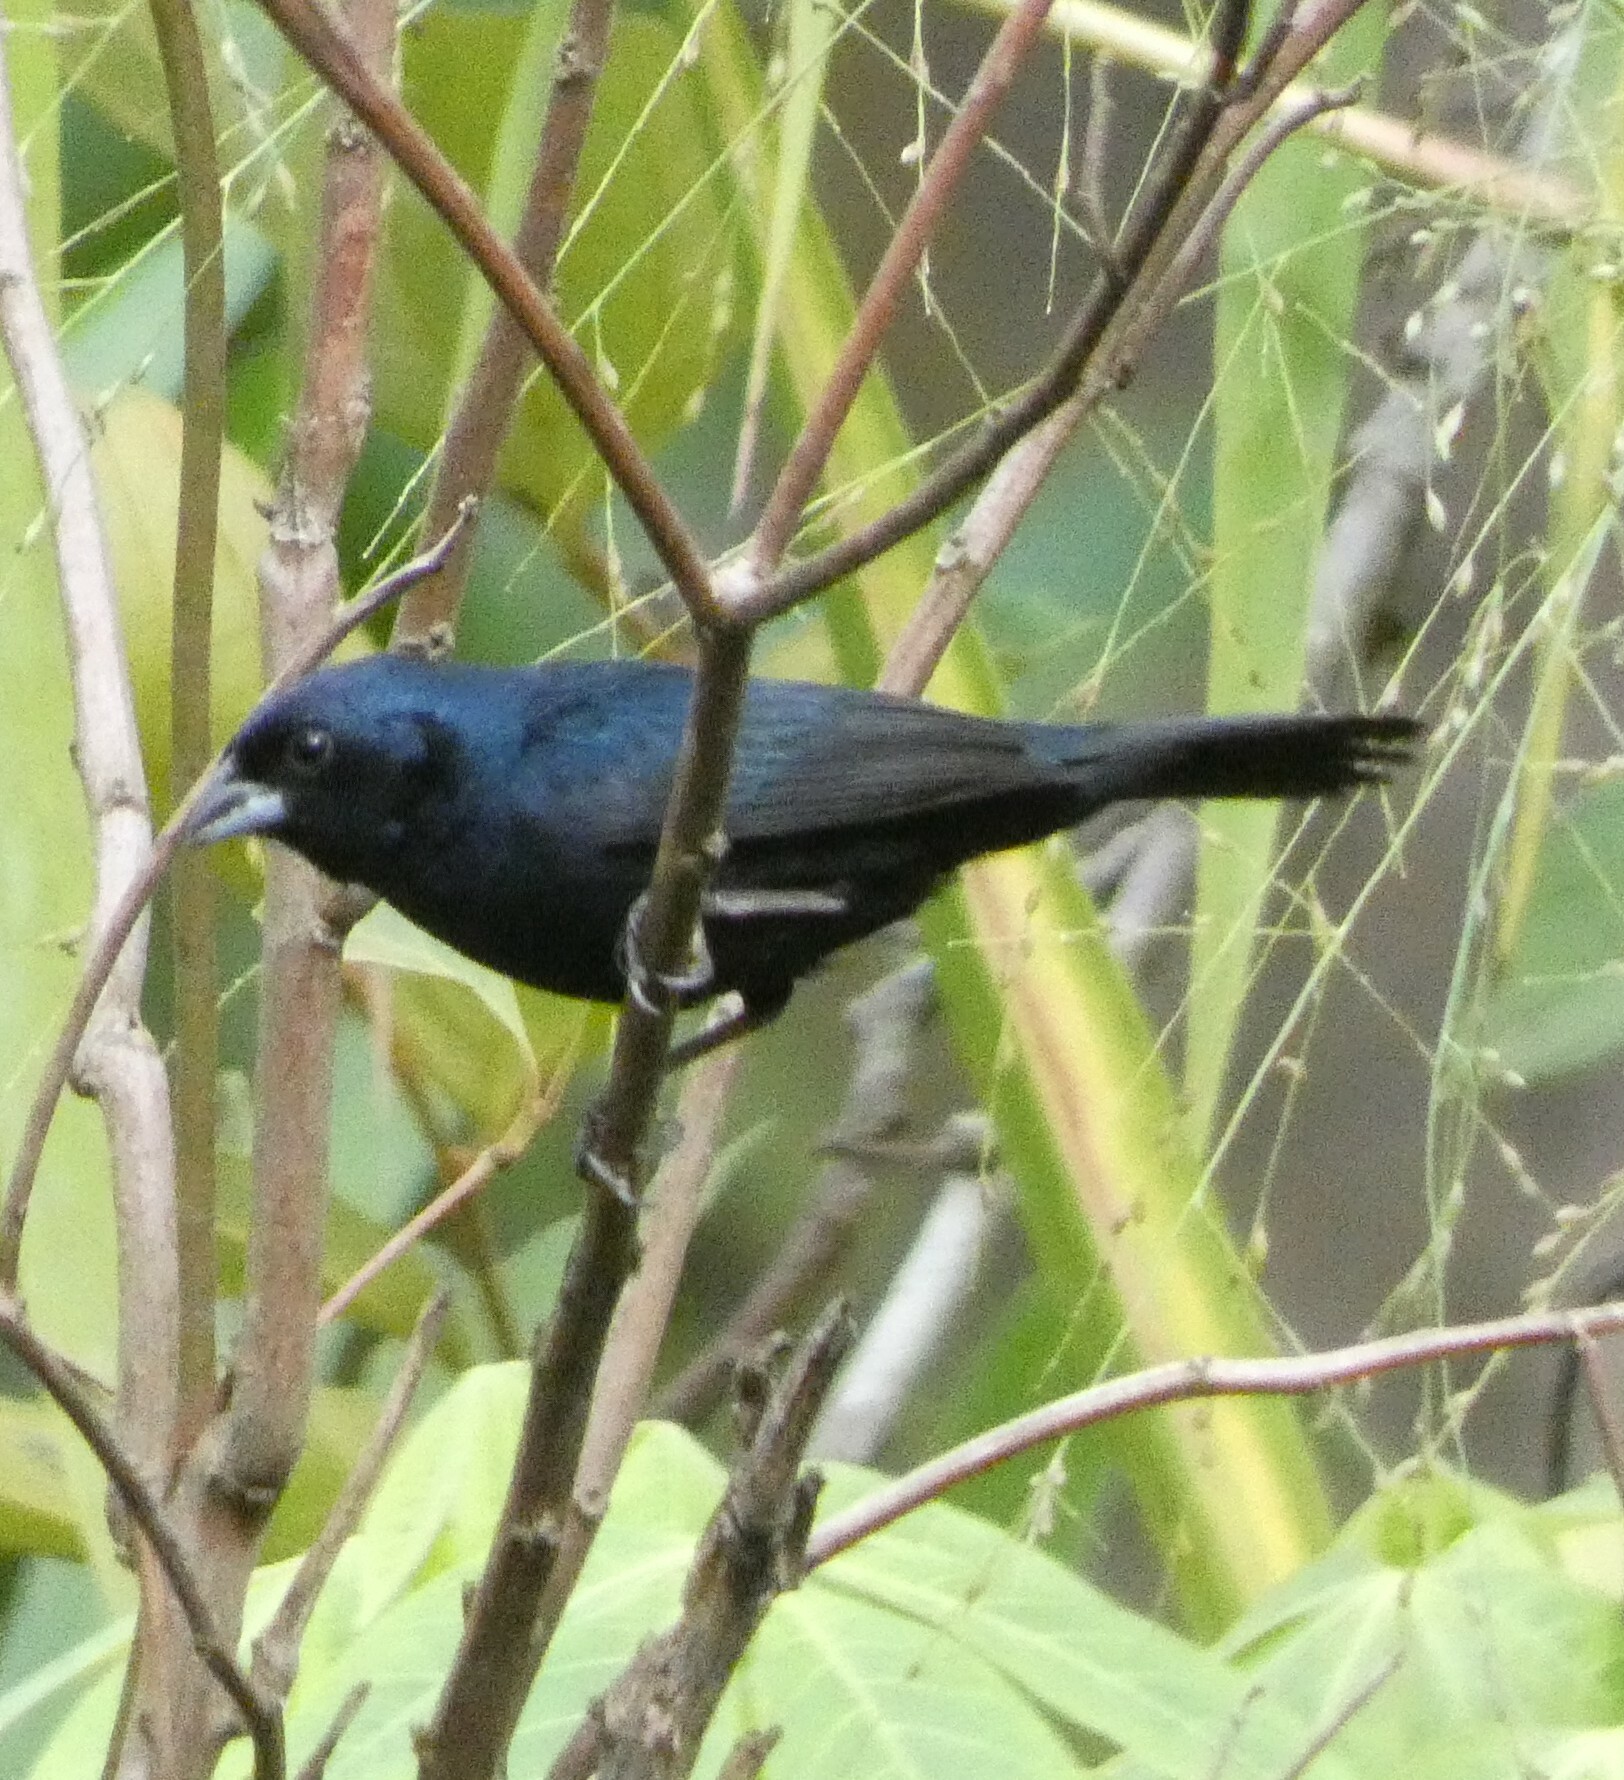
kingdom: Animalia
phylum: Chordata
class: Aves
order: Passeriformes
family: Thraupidae
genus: Volatinia
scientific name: Volatinia jacarina
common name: Blue-black grassquit
